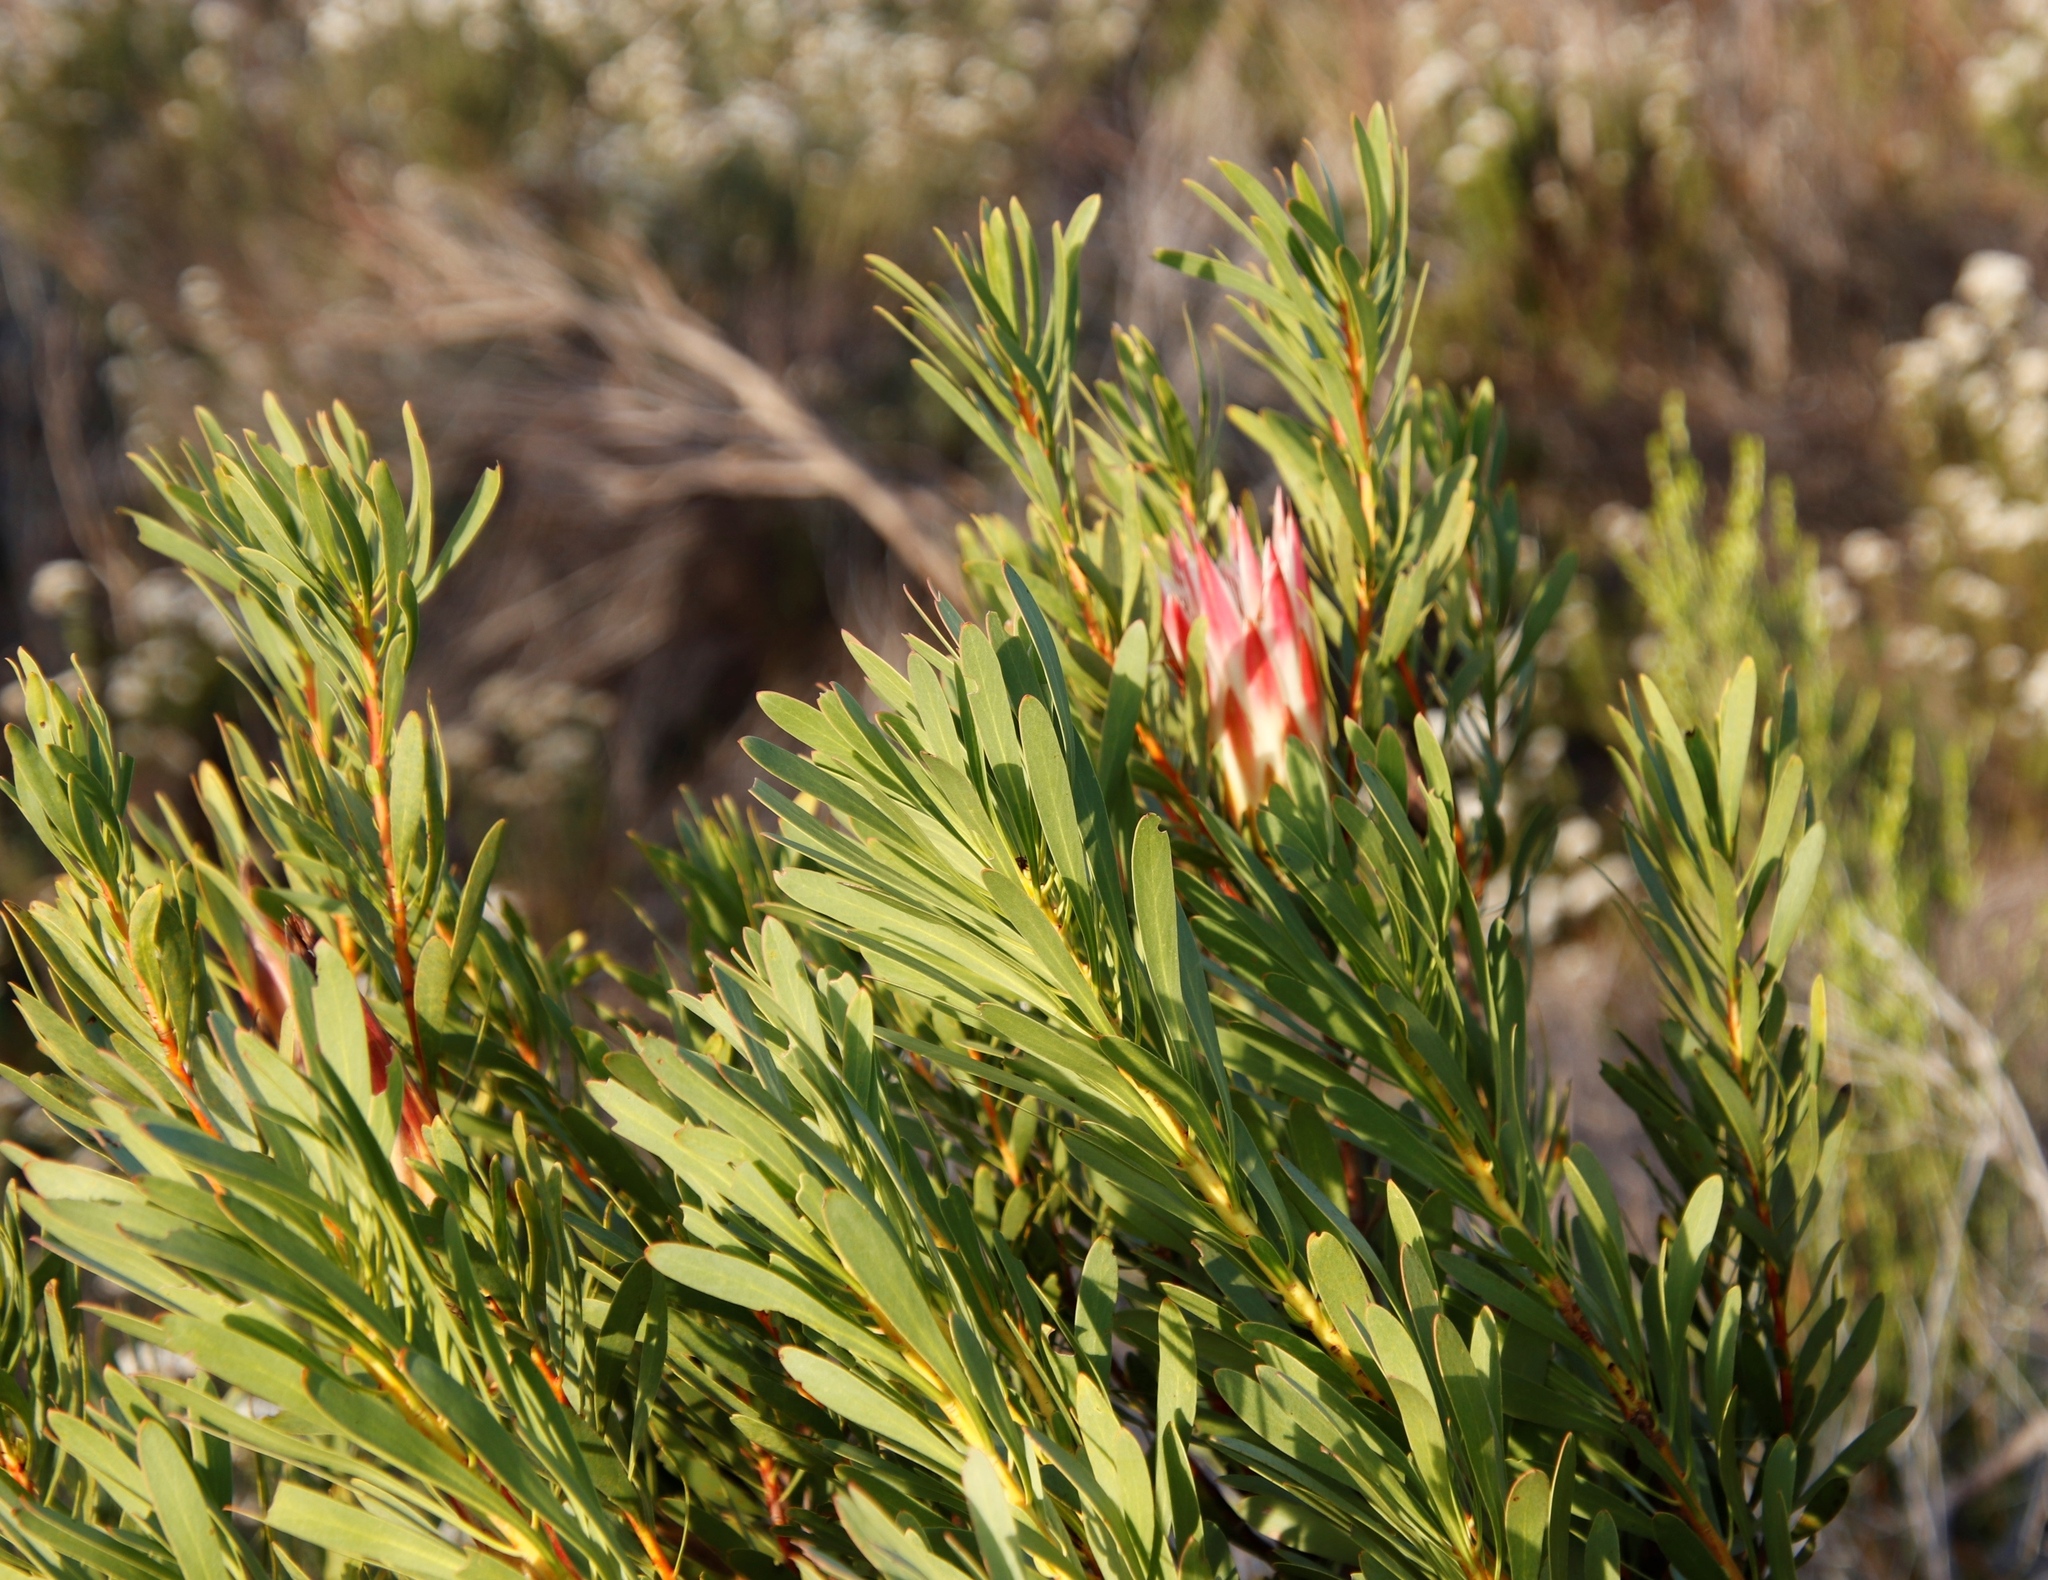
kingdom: Plantae
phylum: Tracheophyta
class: Magnoliopsida
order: Proteales
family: Proteaceae
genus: Protea
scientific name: Protea repens
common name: Sugarbush
